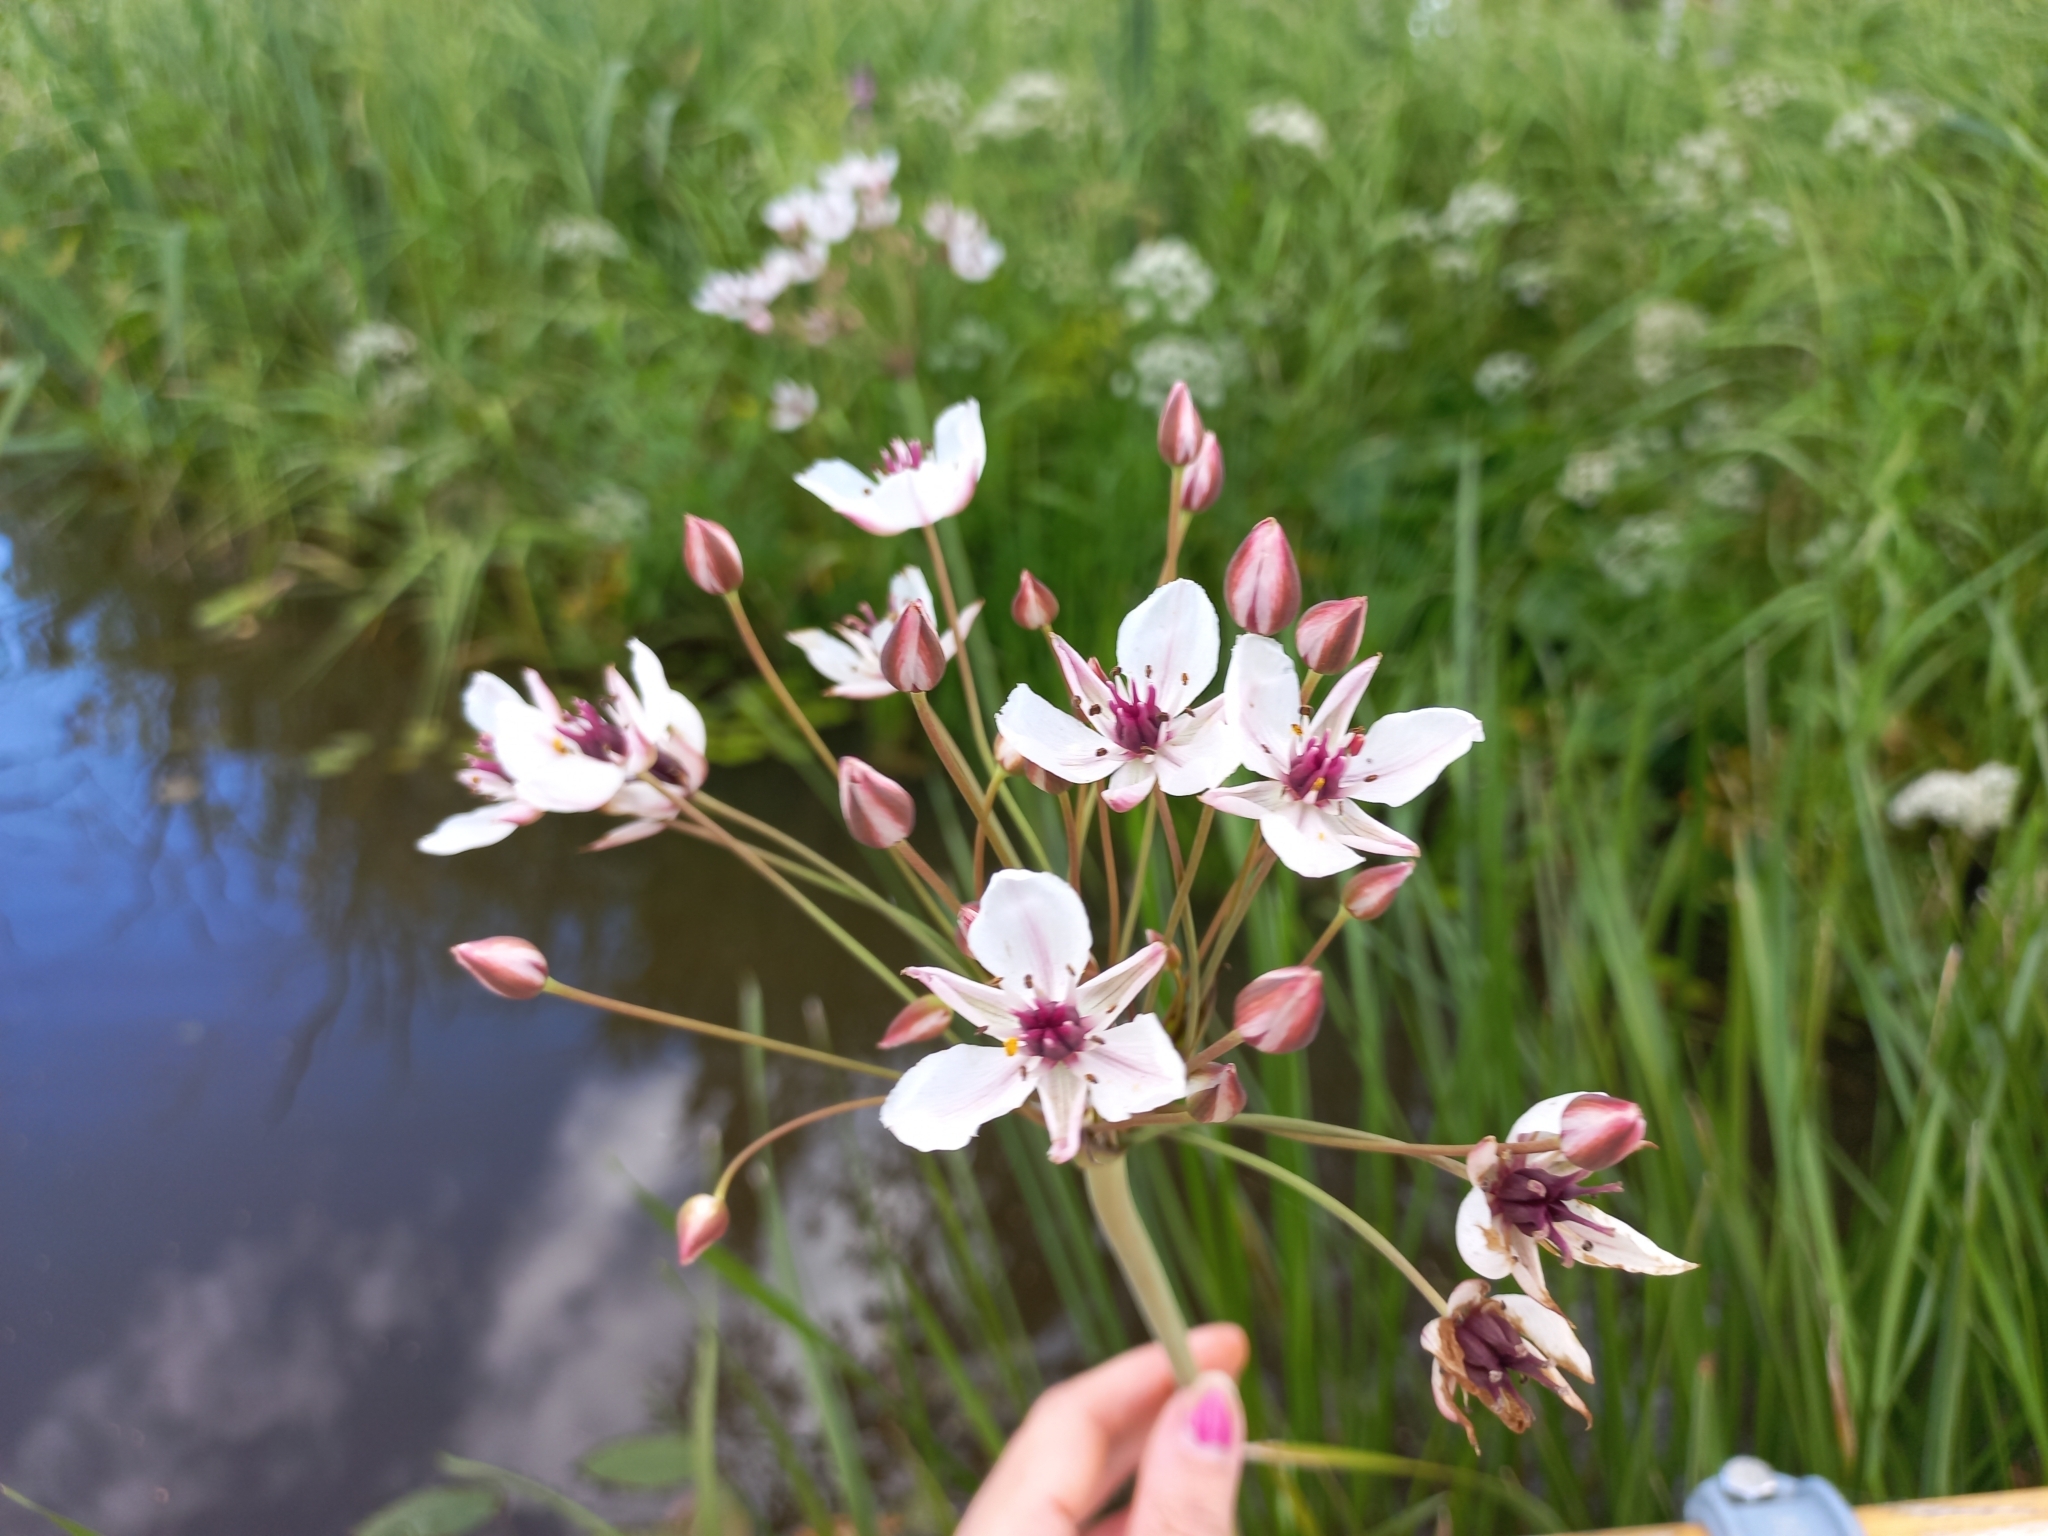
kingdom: Plantae
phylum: Tracheophyta
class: Liliopsida
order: Alismatales
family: Butomaceae
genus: Butomus
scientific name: Butomus umbellatus
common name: Flowering-rush
